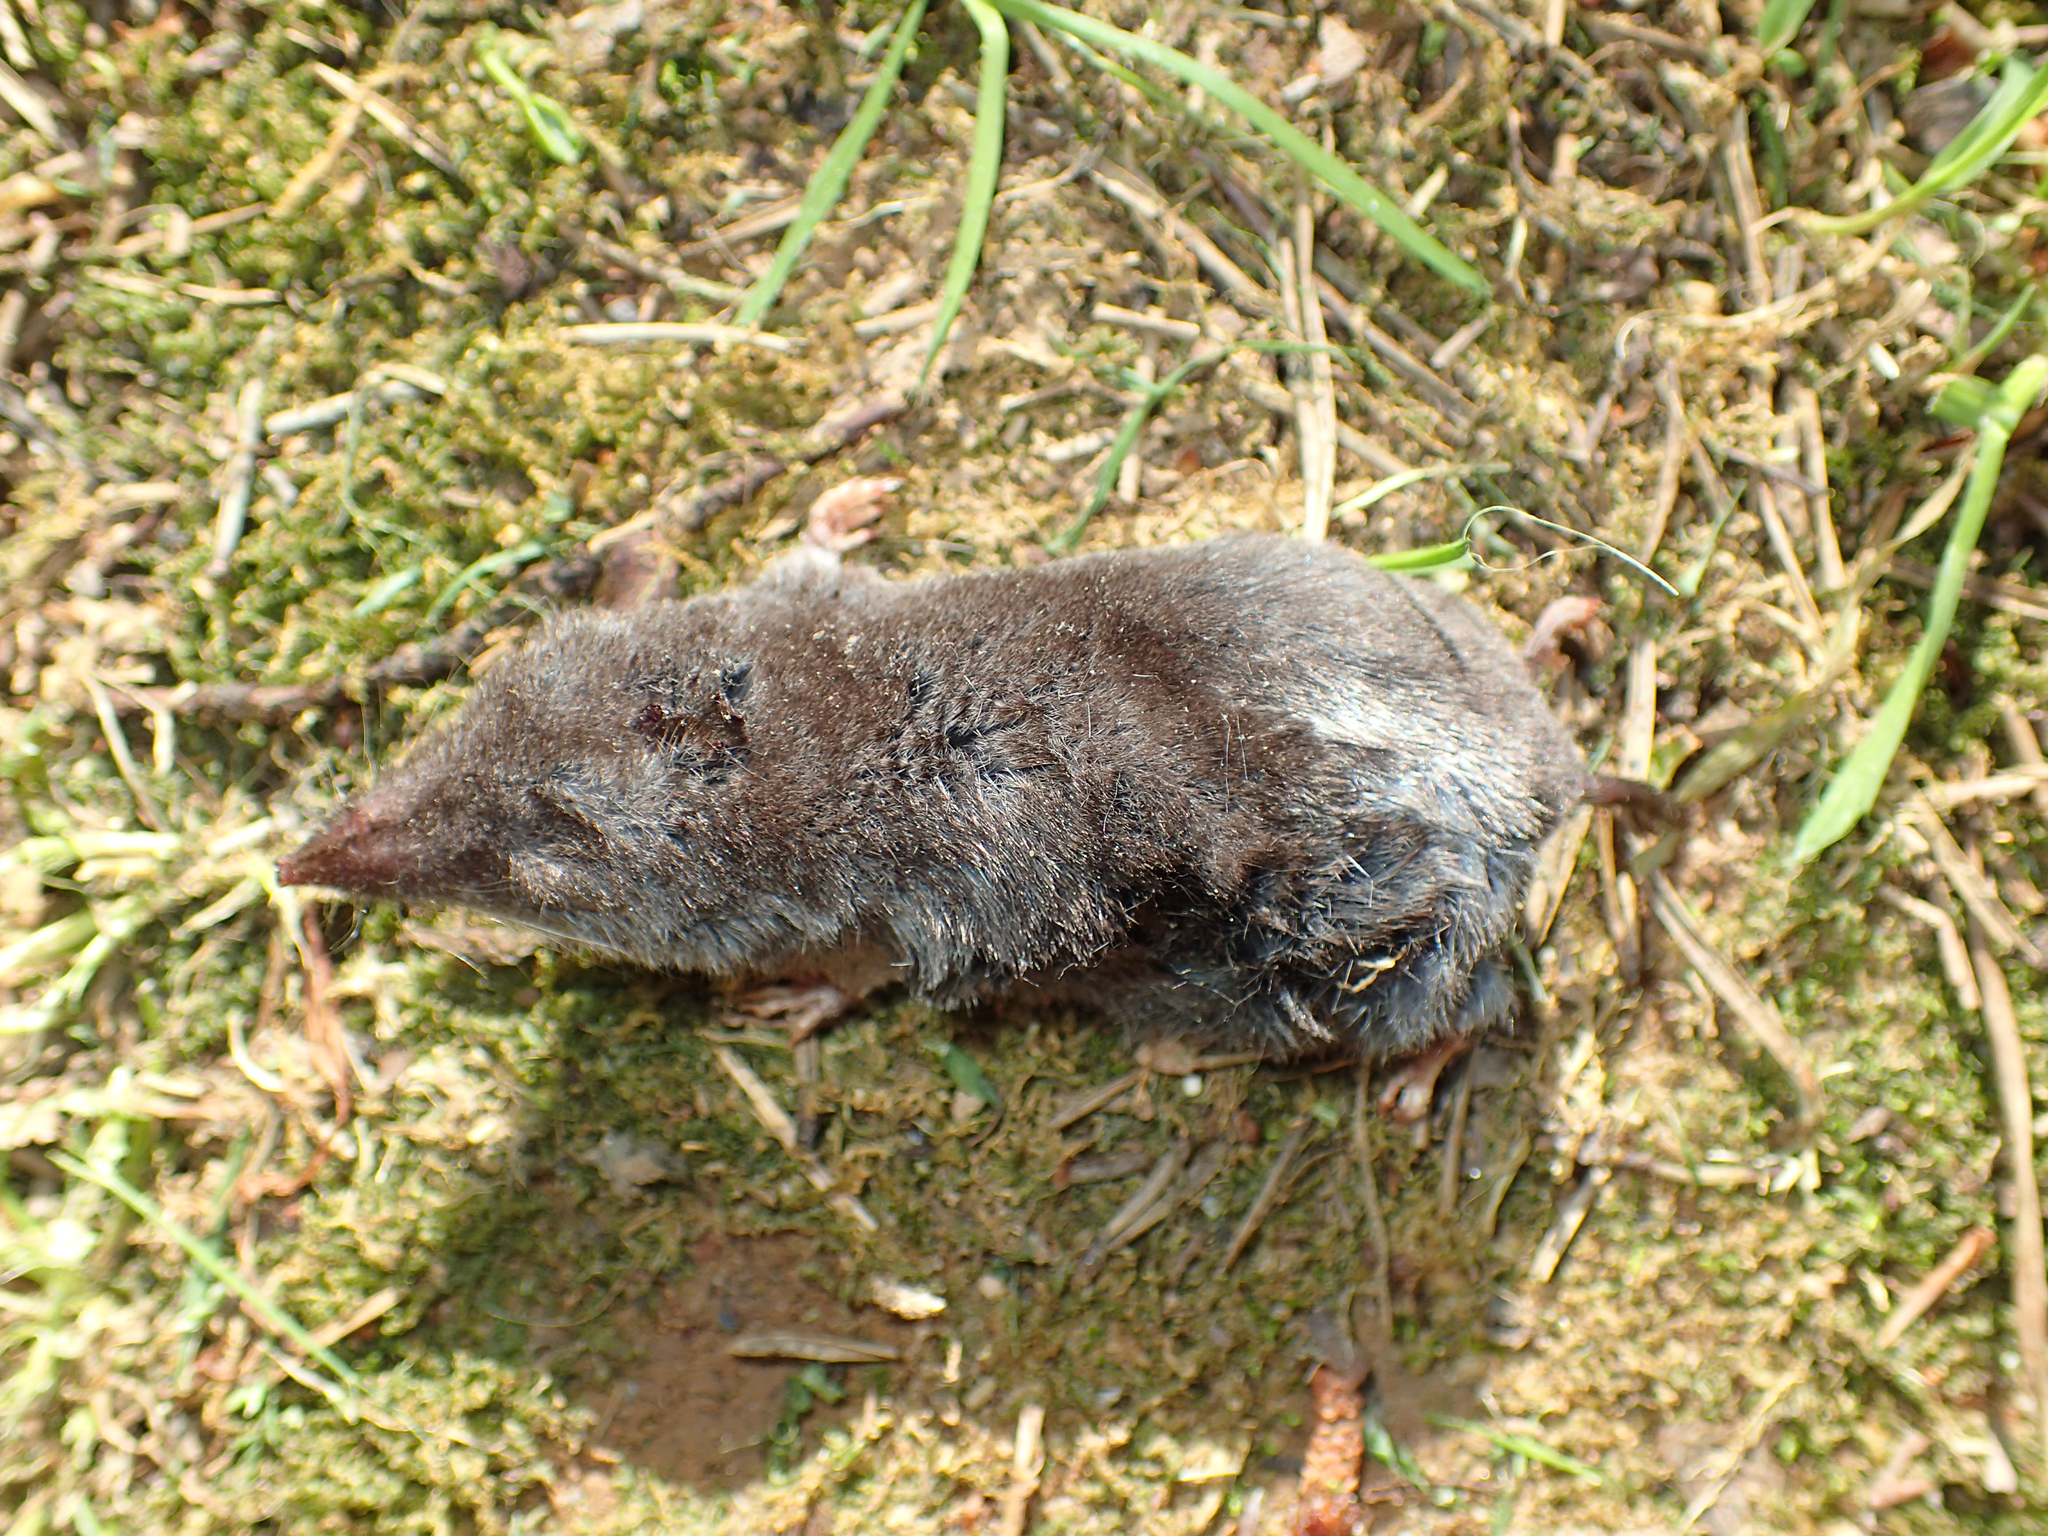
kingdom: Animalia
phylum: Chordata
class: Mammalia
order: Soricomorpha
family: Soricidae
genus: Blarina
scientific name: Blarina carolinensis
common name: Southern short-tailed shrew
